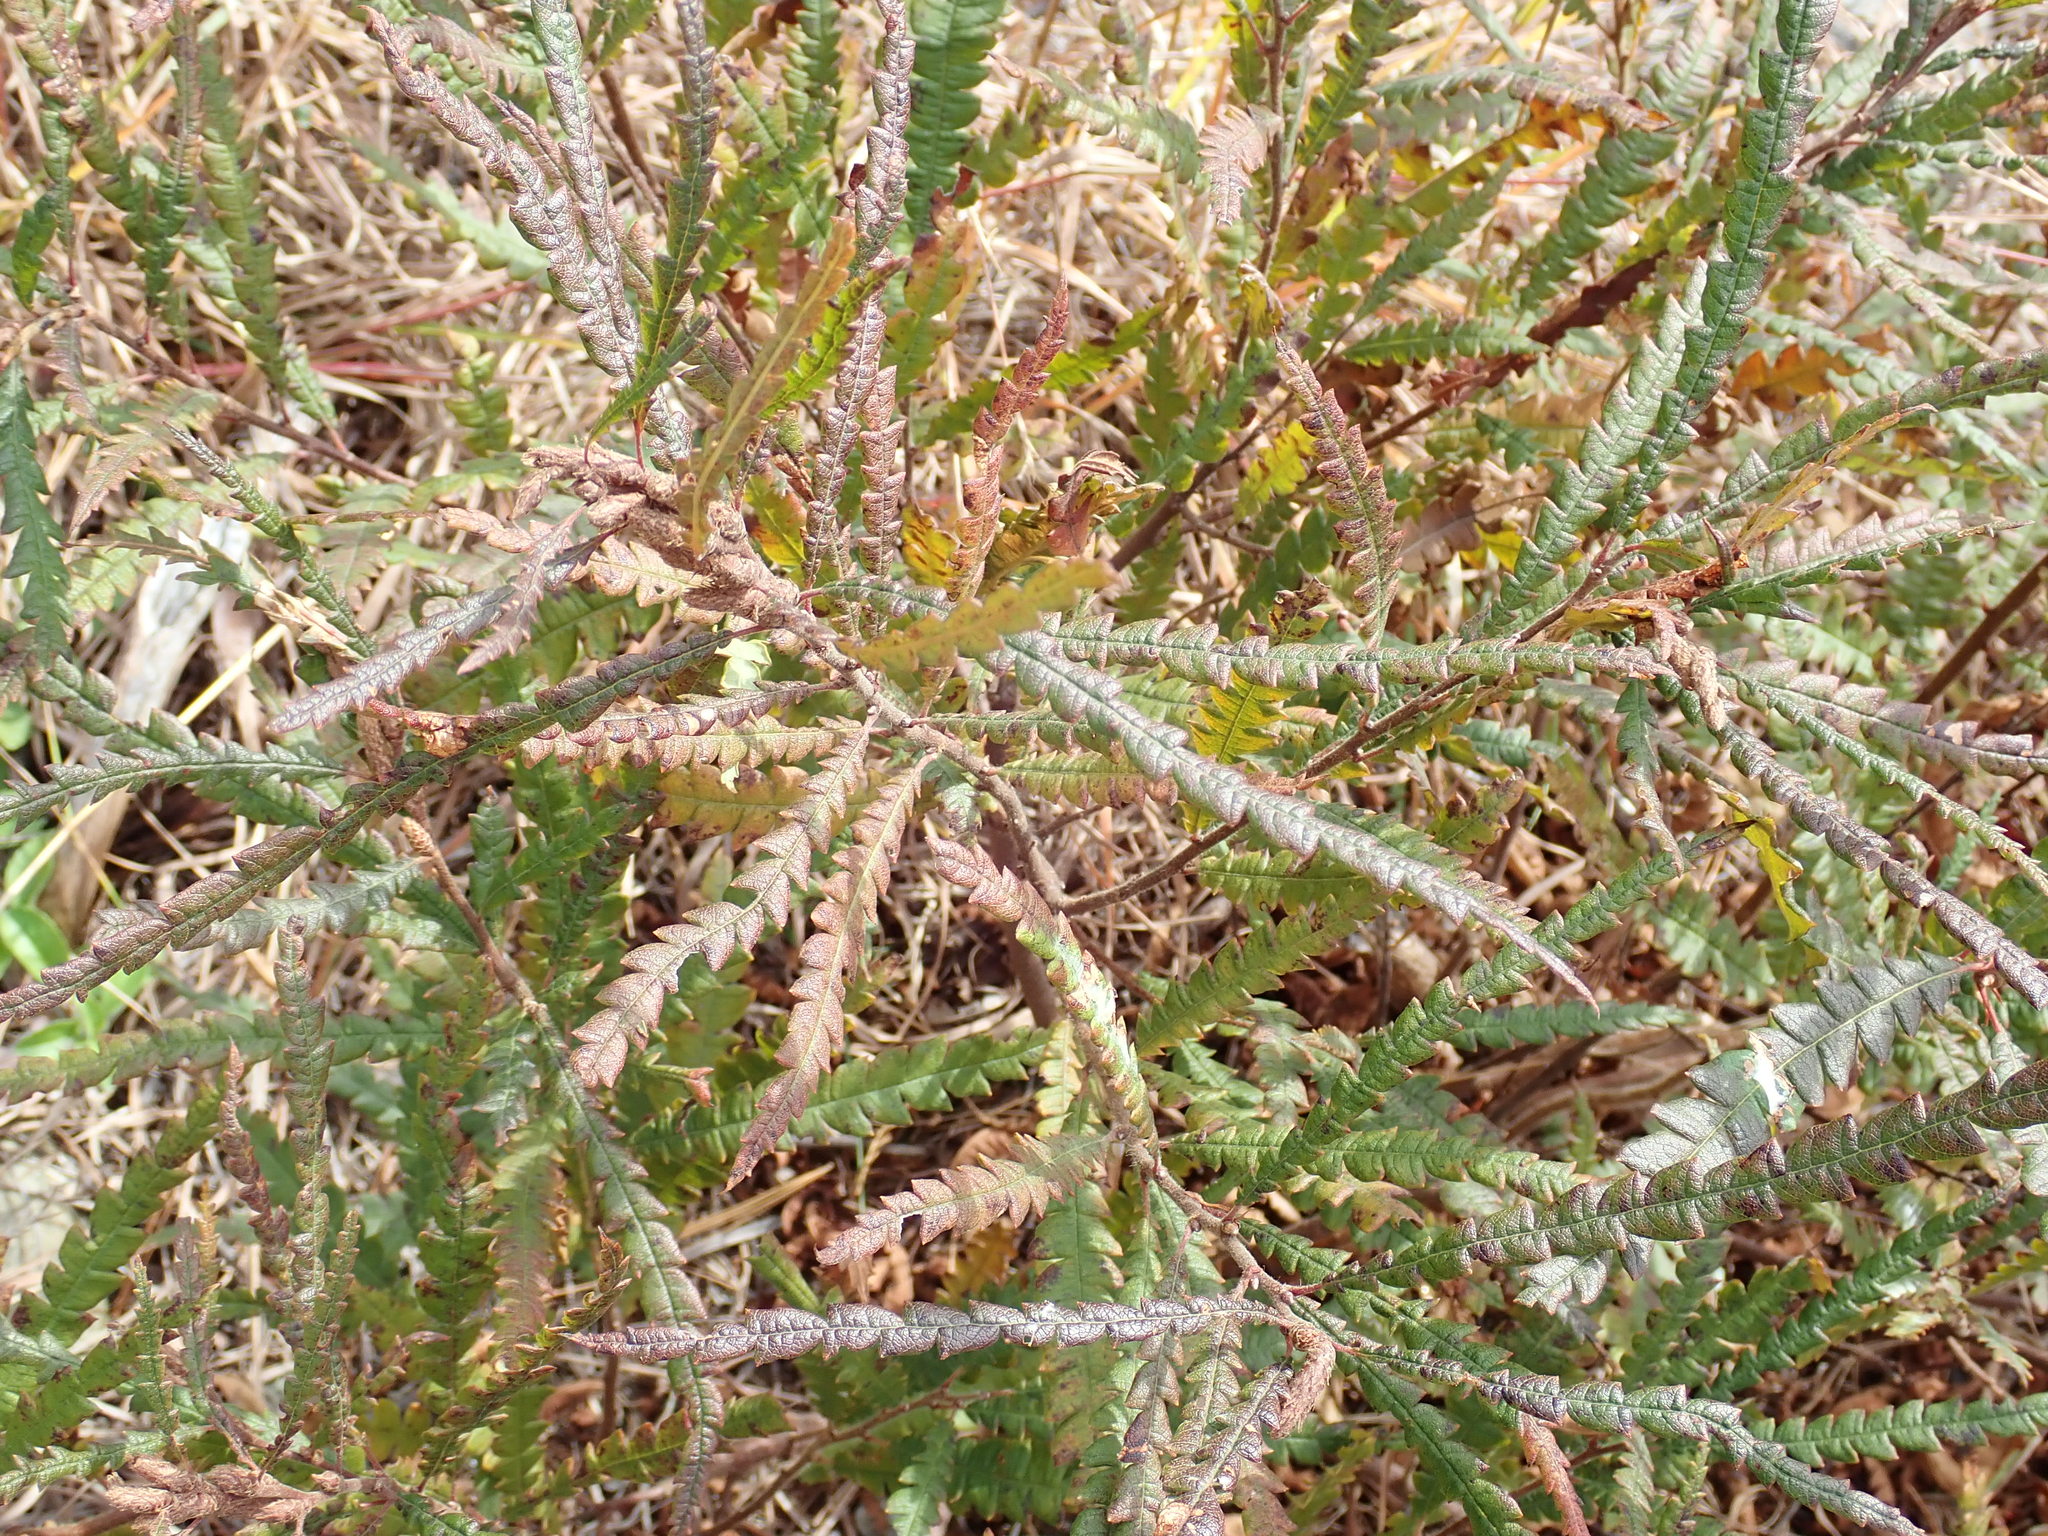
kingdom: Plantae
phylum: Tracheophyta
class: Magnoliopsida
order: Fagales
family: Myricaceae
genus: Comptonia
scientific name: Comptonia peregrina
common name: Sweet-fern
